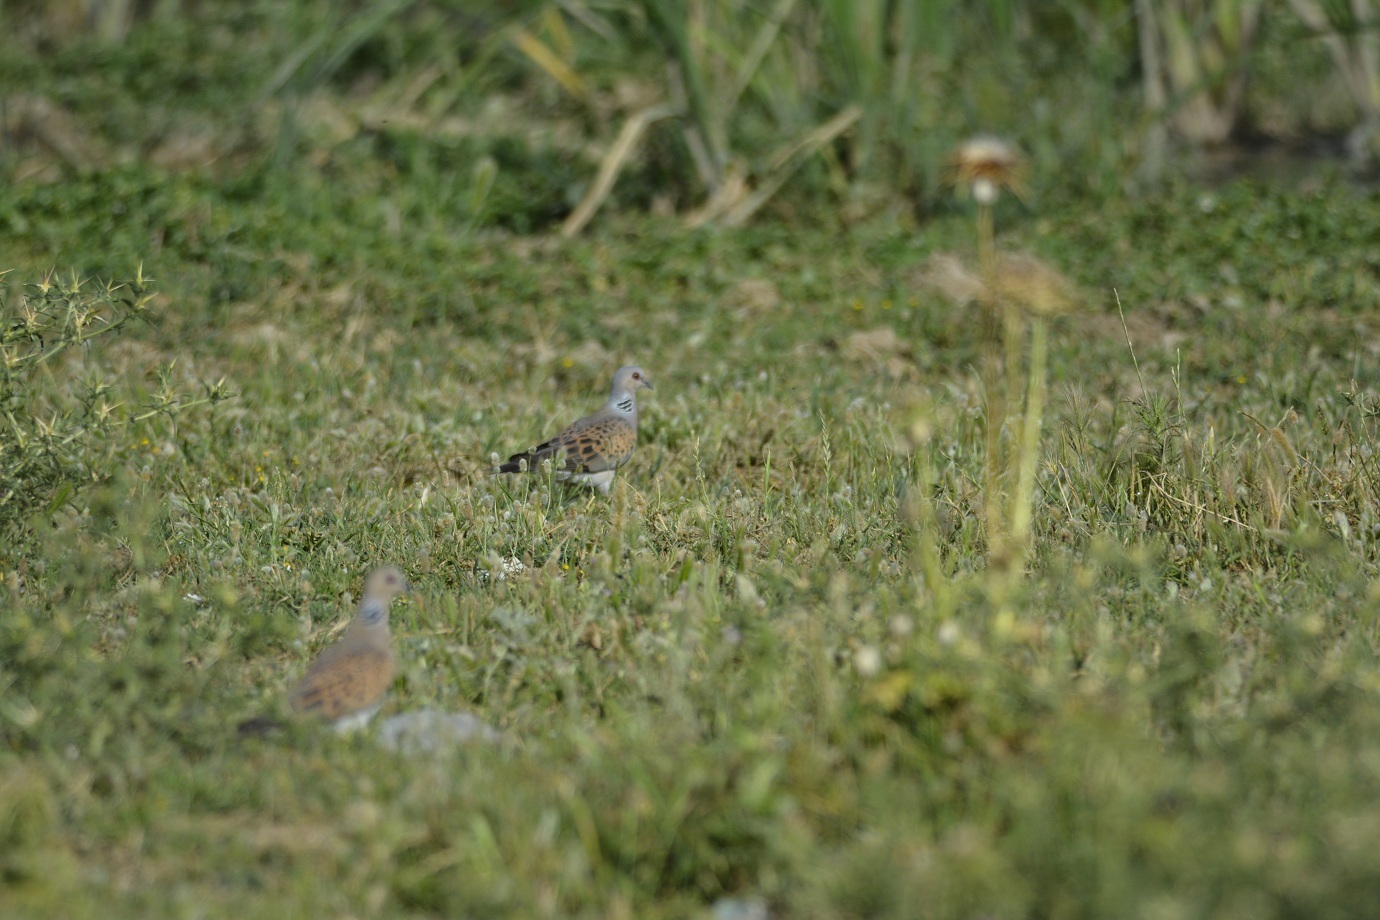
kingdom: Animalia
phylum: Chordata
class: Aves
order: Columbiformes
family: Columbidae
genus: Streptopelia
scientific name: Streptopelia turtur
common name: European turtle dove
